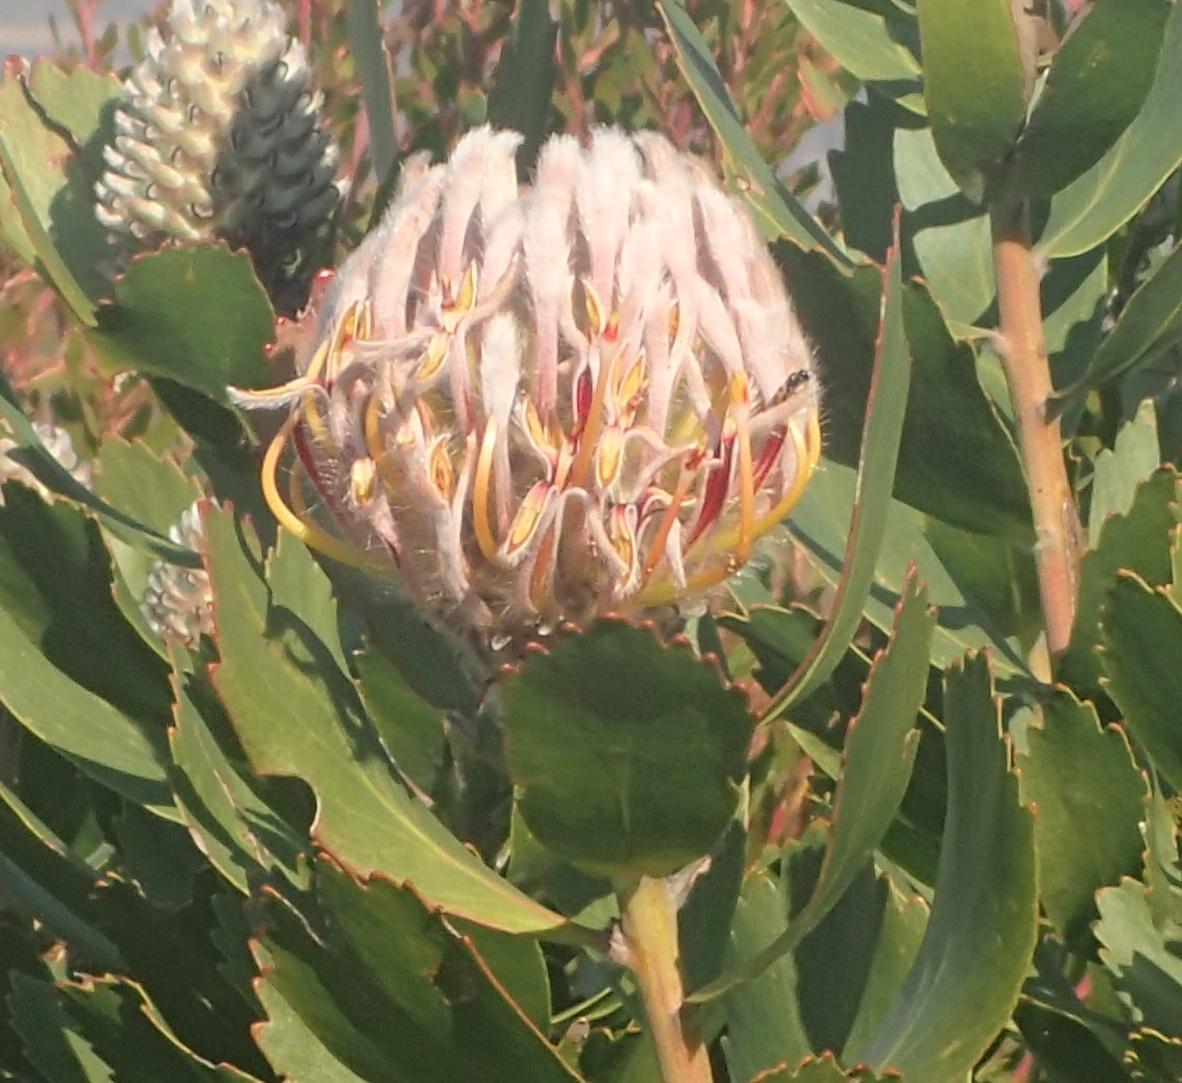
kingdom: Plantae
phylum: Tracheophyta
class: Magnoliopsida
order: Proteales
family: Proteaceae
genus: Leucospermum
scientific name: Leucospermum glabrum
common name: Outeniqua pincushion
